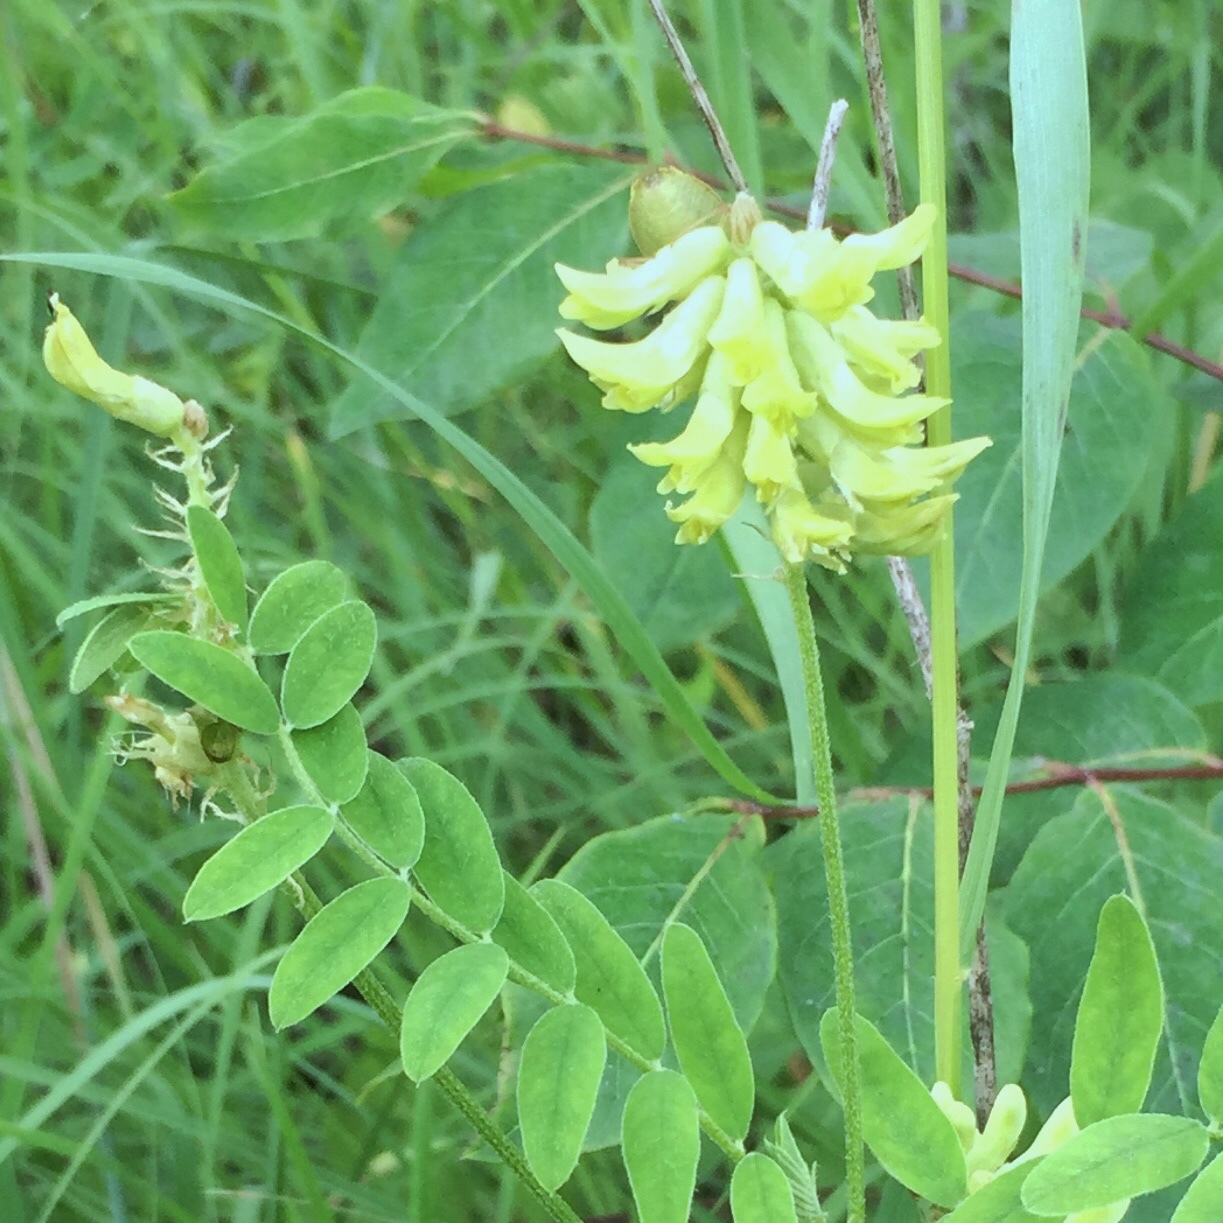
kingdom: Plantae
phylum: Tracheophyta
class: Magnoliopsida
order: Fabales
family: Fabaceae
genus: Astragalus
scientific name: Astragalus canadensis
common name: Canada milk-vetch
